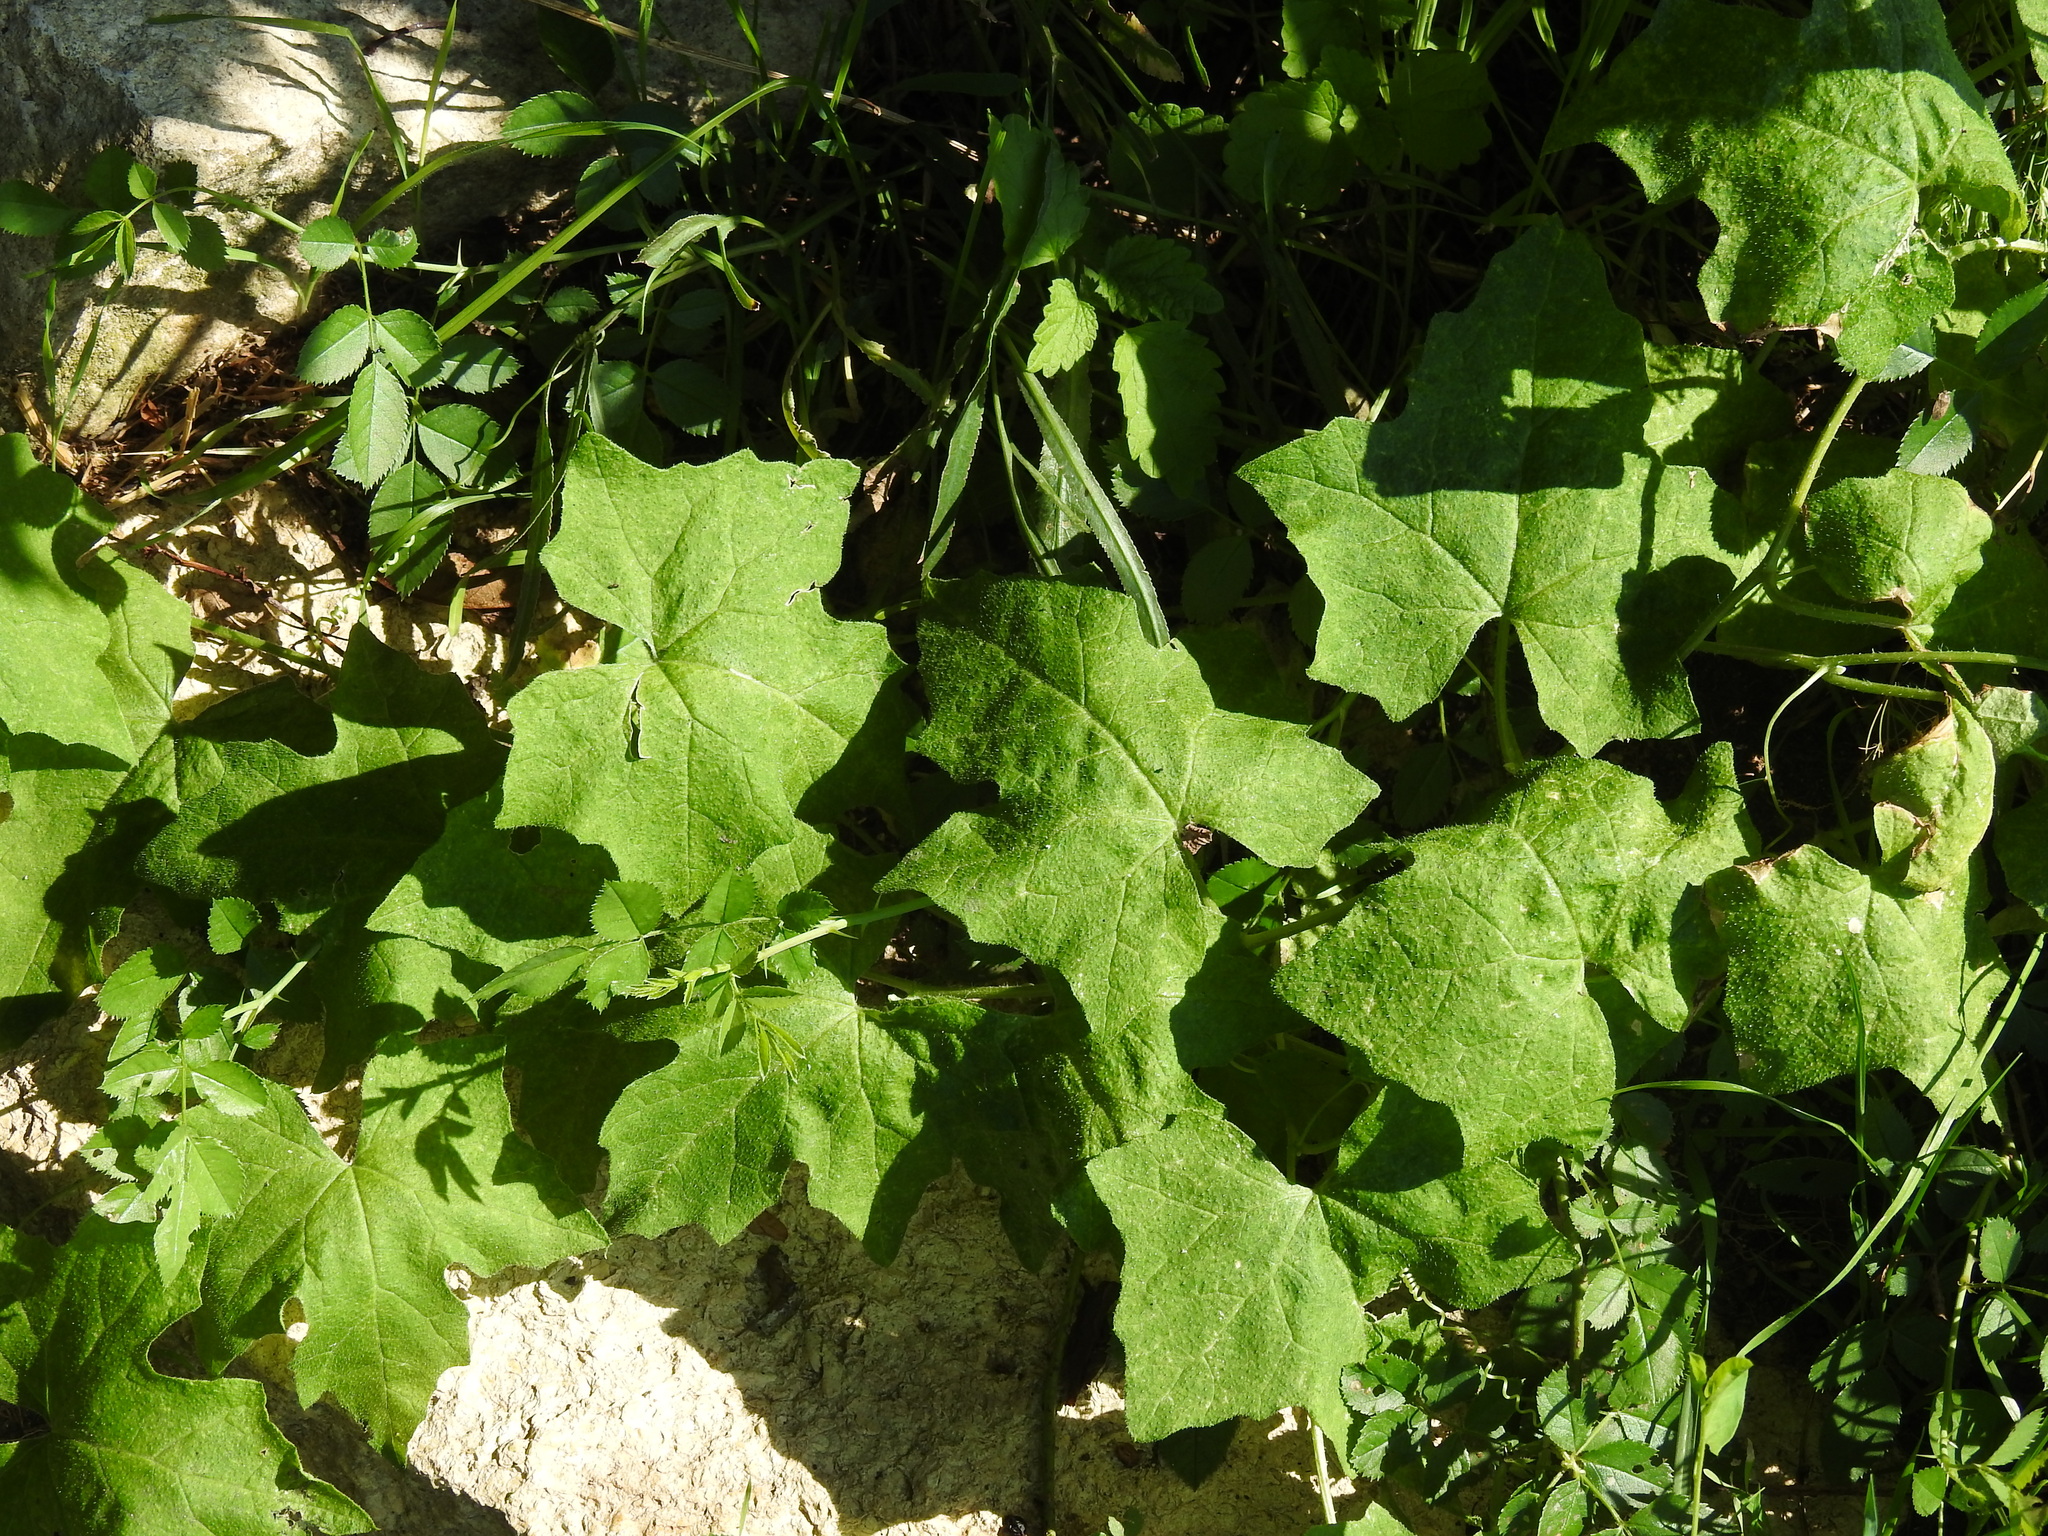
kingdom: Plantae
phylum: Tracheophyta
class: Magnoliopsida
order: Cucurbitales
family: Cucurbitaceae
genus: Bryonia
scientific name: Bryonia cretica
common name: Cretan bryony
